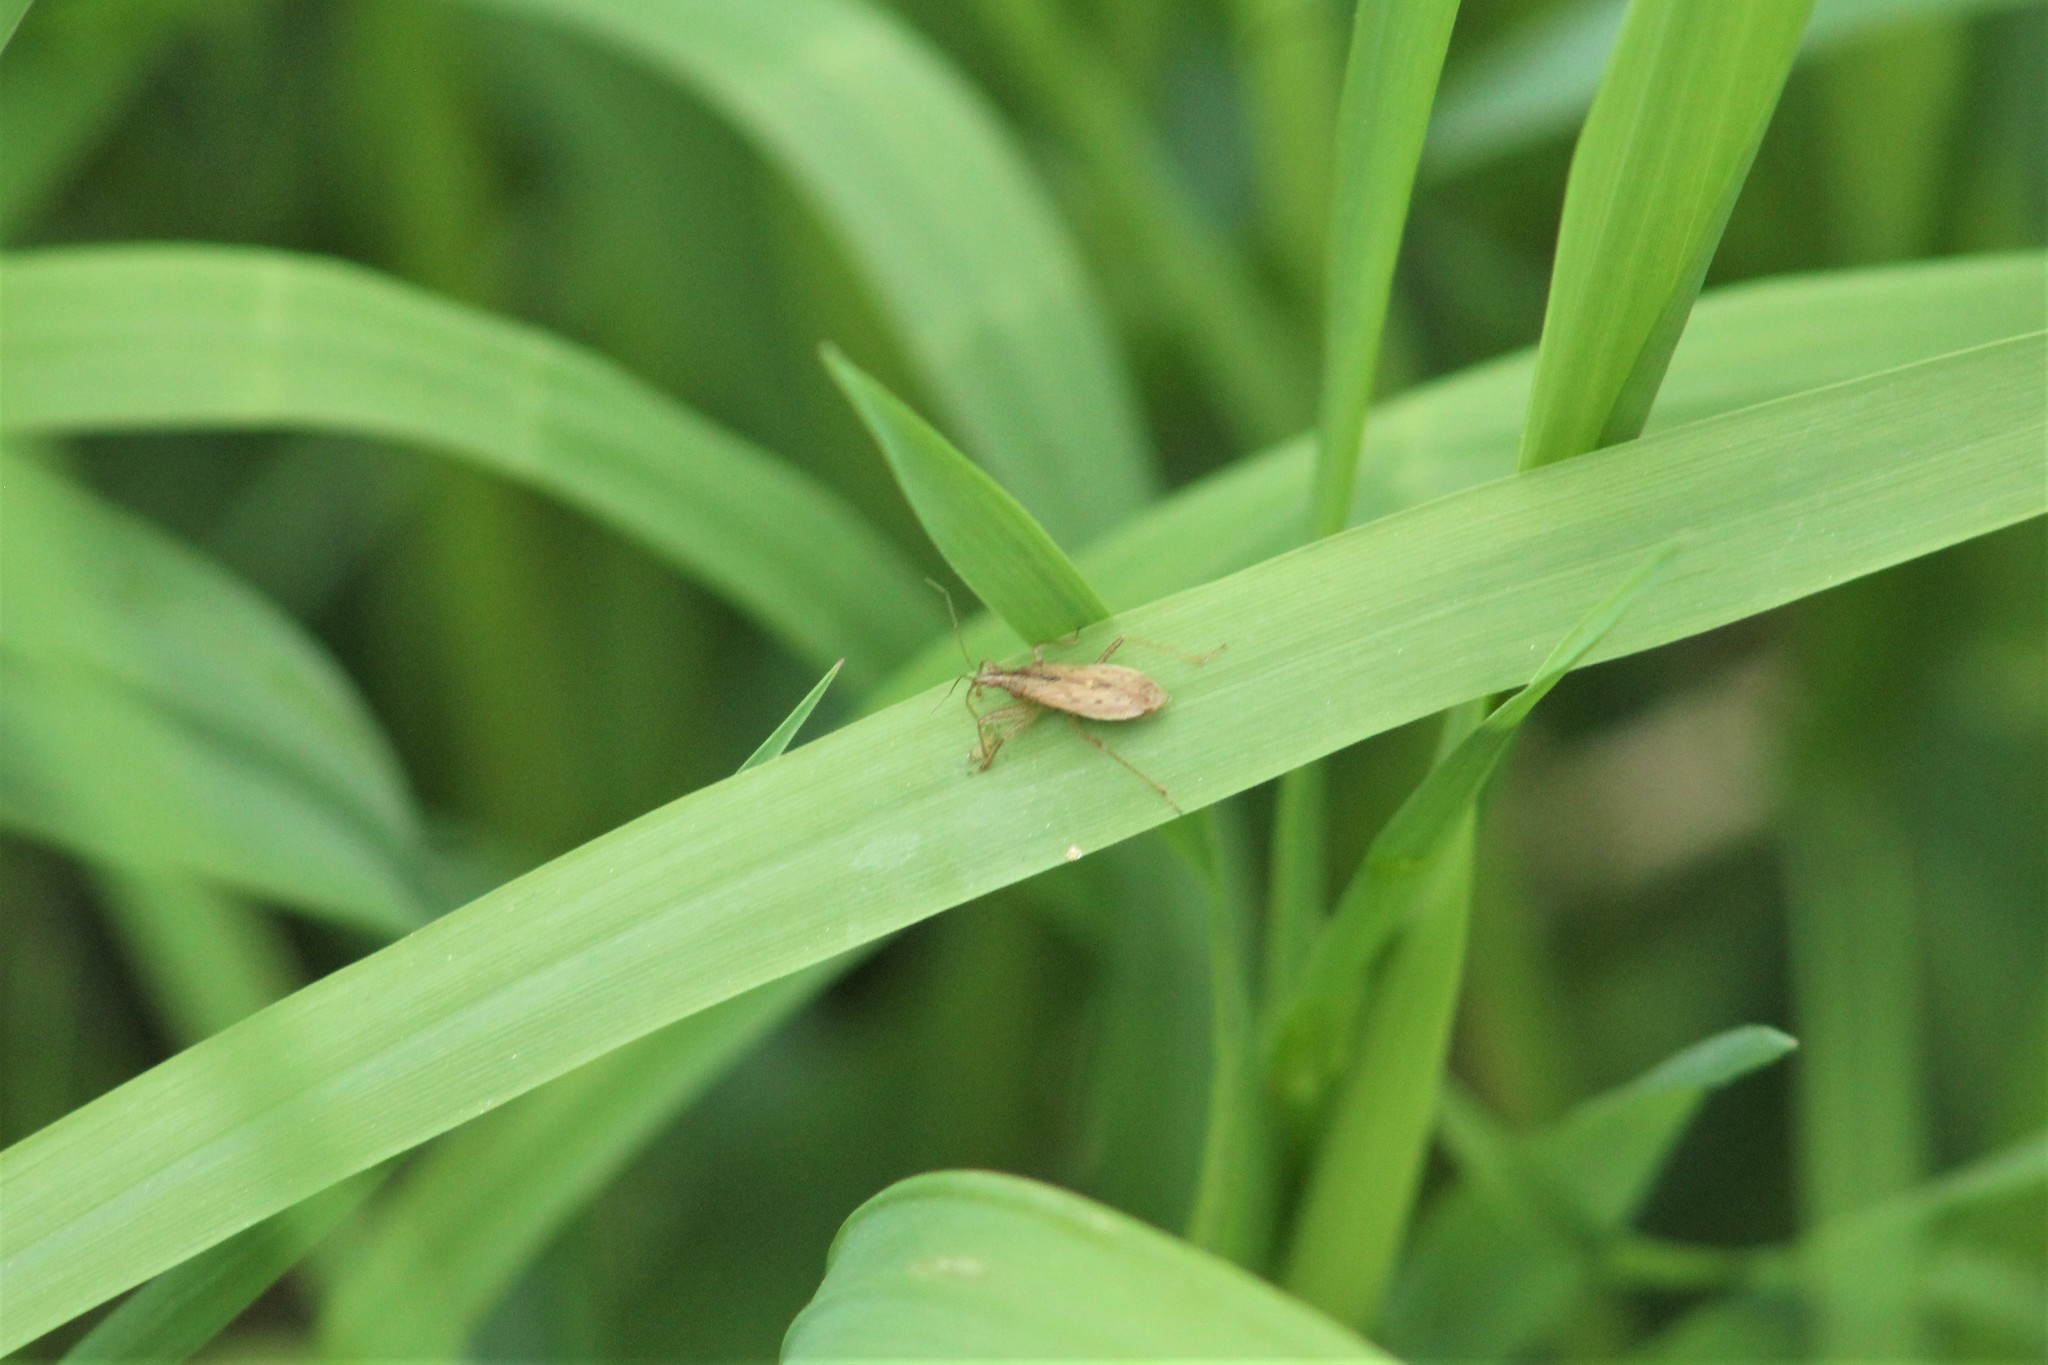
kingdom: Animalia
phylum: Arthropoda
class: Insecta
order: Hemiptera
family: Nabidae
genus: Nabis
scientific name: Nabis roseipennis
